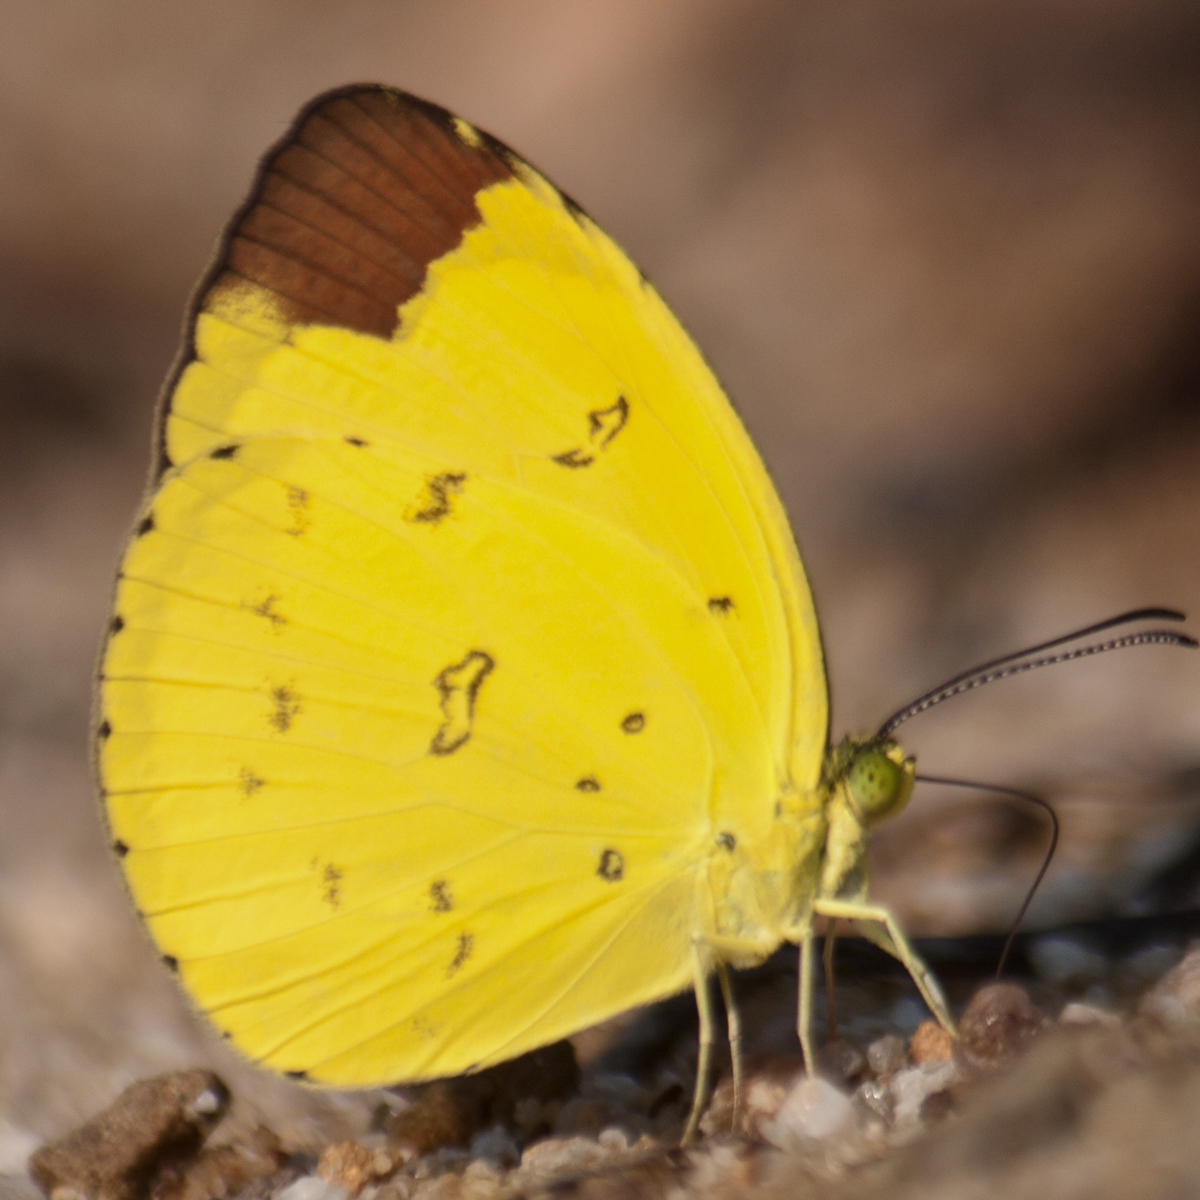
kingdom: Animalia
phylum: Arthropoda
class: Insecta
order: Lepidoptera
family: Pieridae
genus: Eurema
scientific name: Eurema sari
